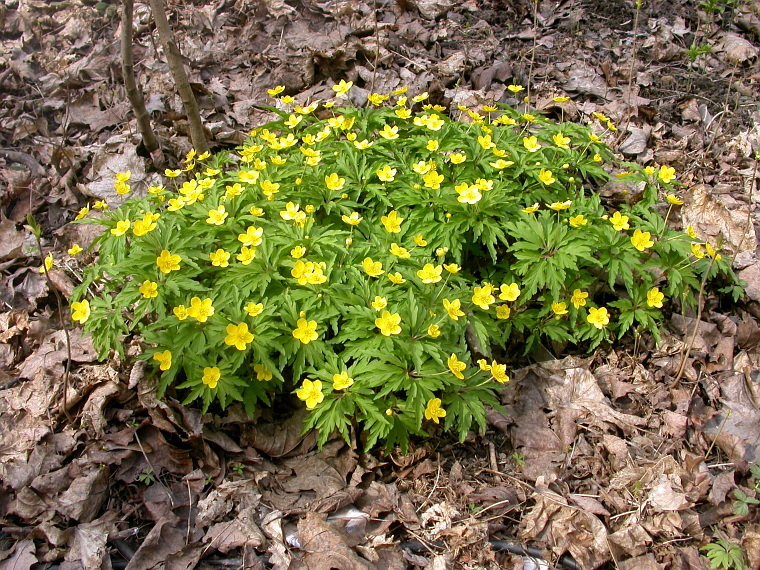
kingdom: Plantae
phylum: Tracheophyta
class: Magnoliopsida
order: Ranunculales
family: Ranunculaceae
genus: Anemone
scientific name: Anemone ranunculoides
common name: Yellow anemone
